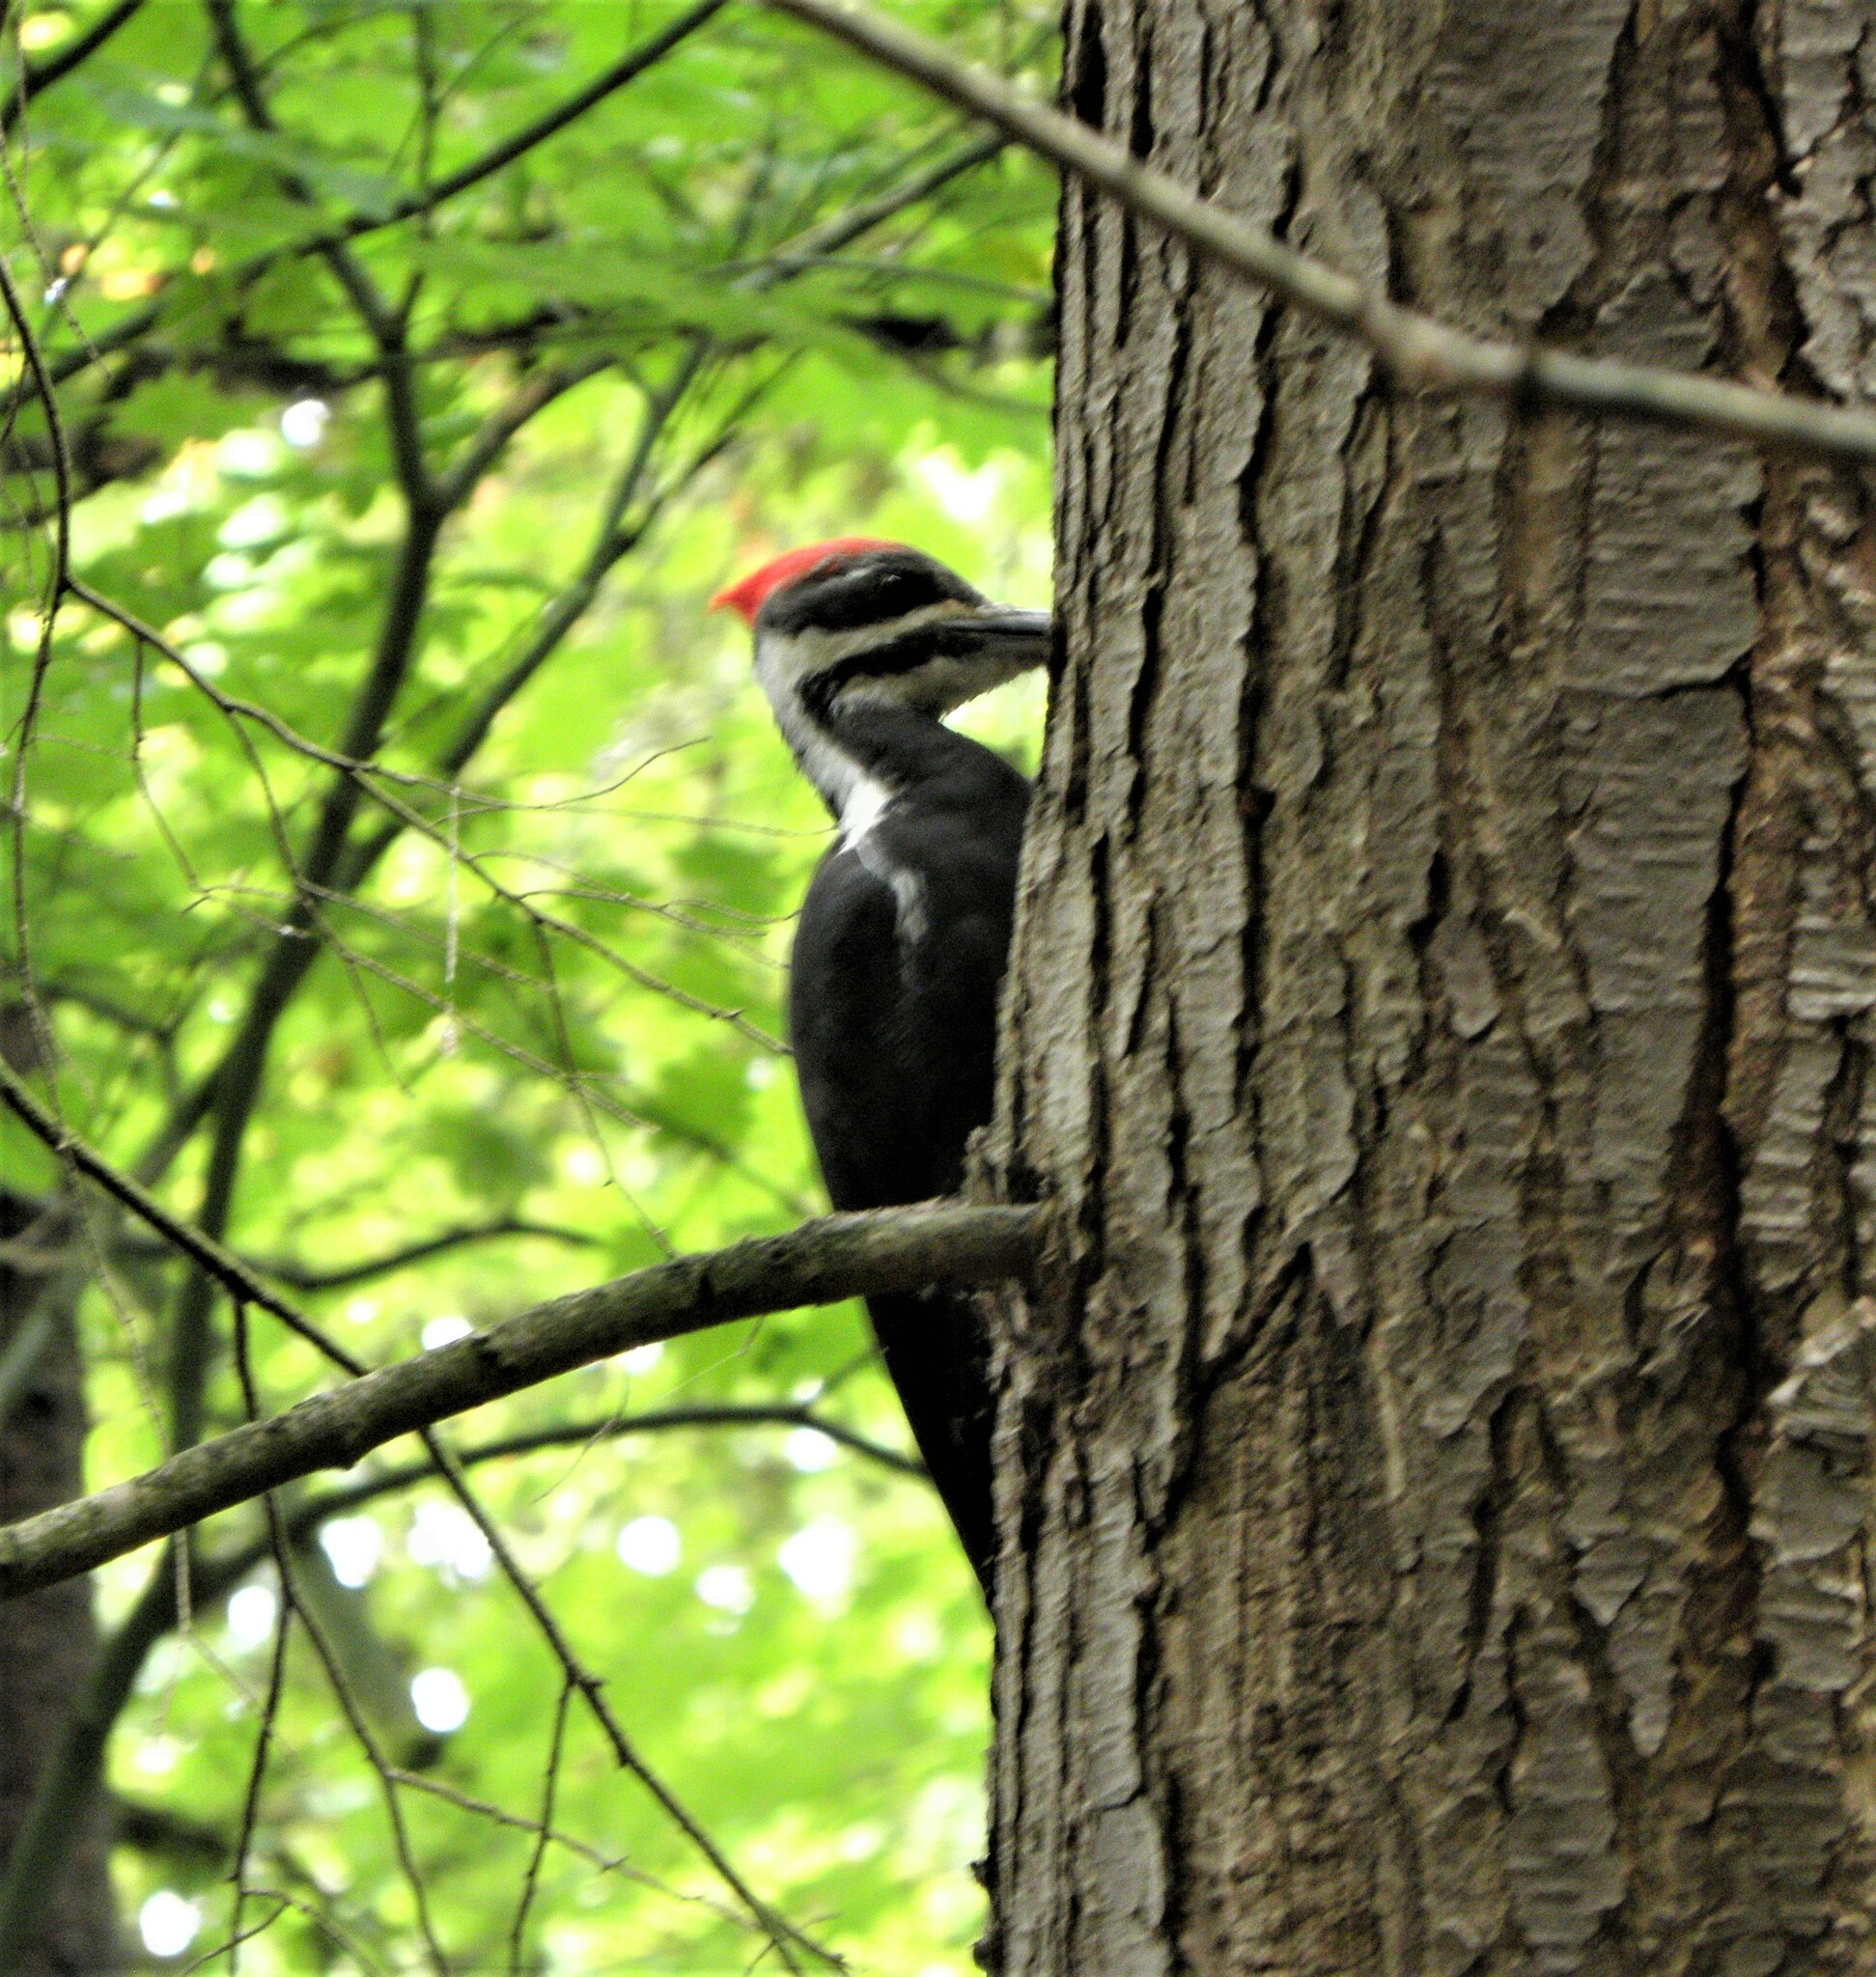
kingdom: Animalia
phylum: Chordata
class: Aves
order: Piciformes
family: Picidae
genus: Dryocopus
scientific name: Dryocopus pileatus
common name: Pileated woodpecker
